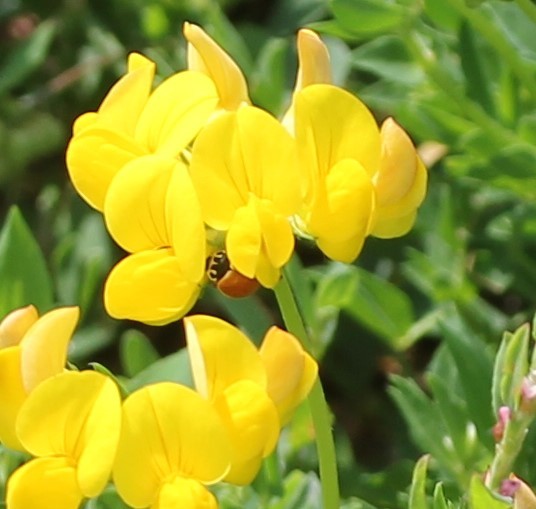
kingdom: Animalia
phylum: Arthropoda
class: Insecta
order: Coleoptera
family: Coccinellidae
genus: Cycloneda
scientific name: Cycloneda munda
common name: Polished lady beetle
